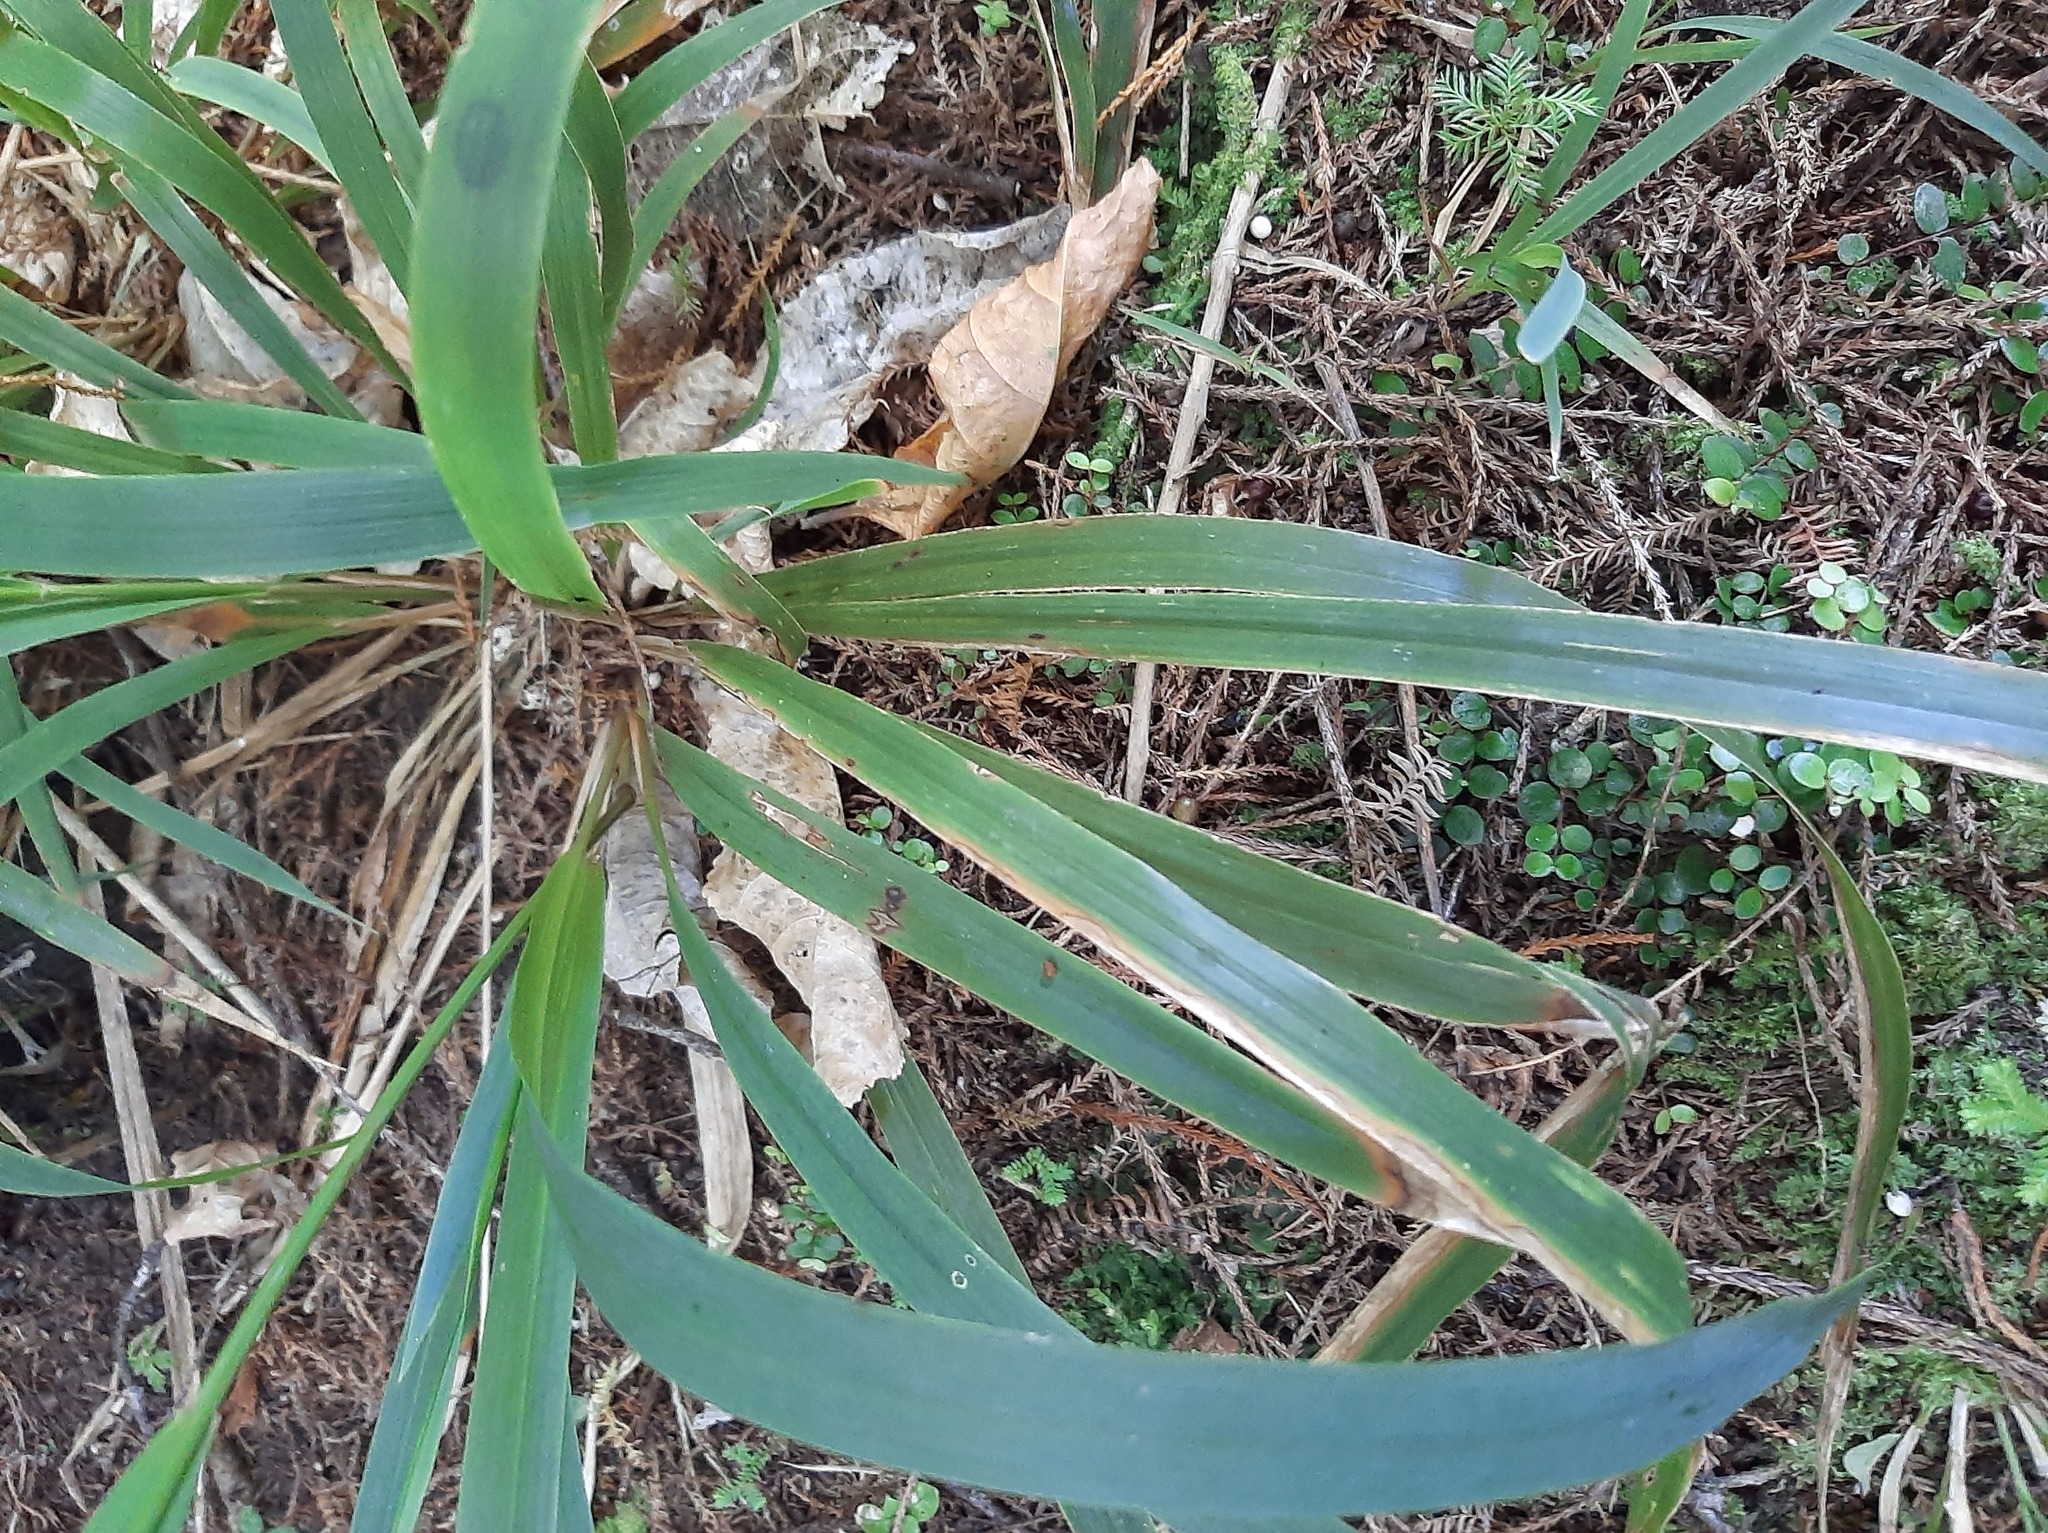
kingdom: Plantae
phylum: Tracheophyta
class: Liliopsida
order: Poales
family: Poaceae
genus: Ehrharta
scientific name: Ehrharta diplax
